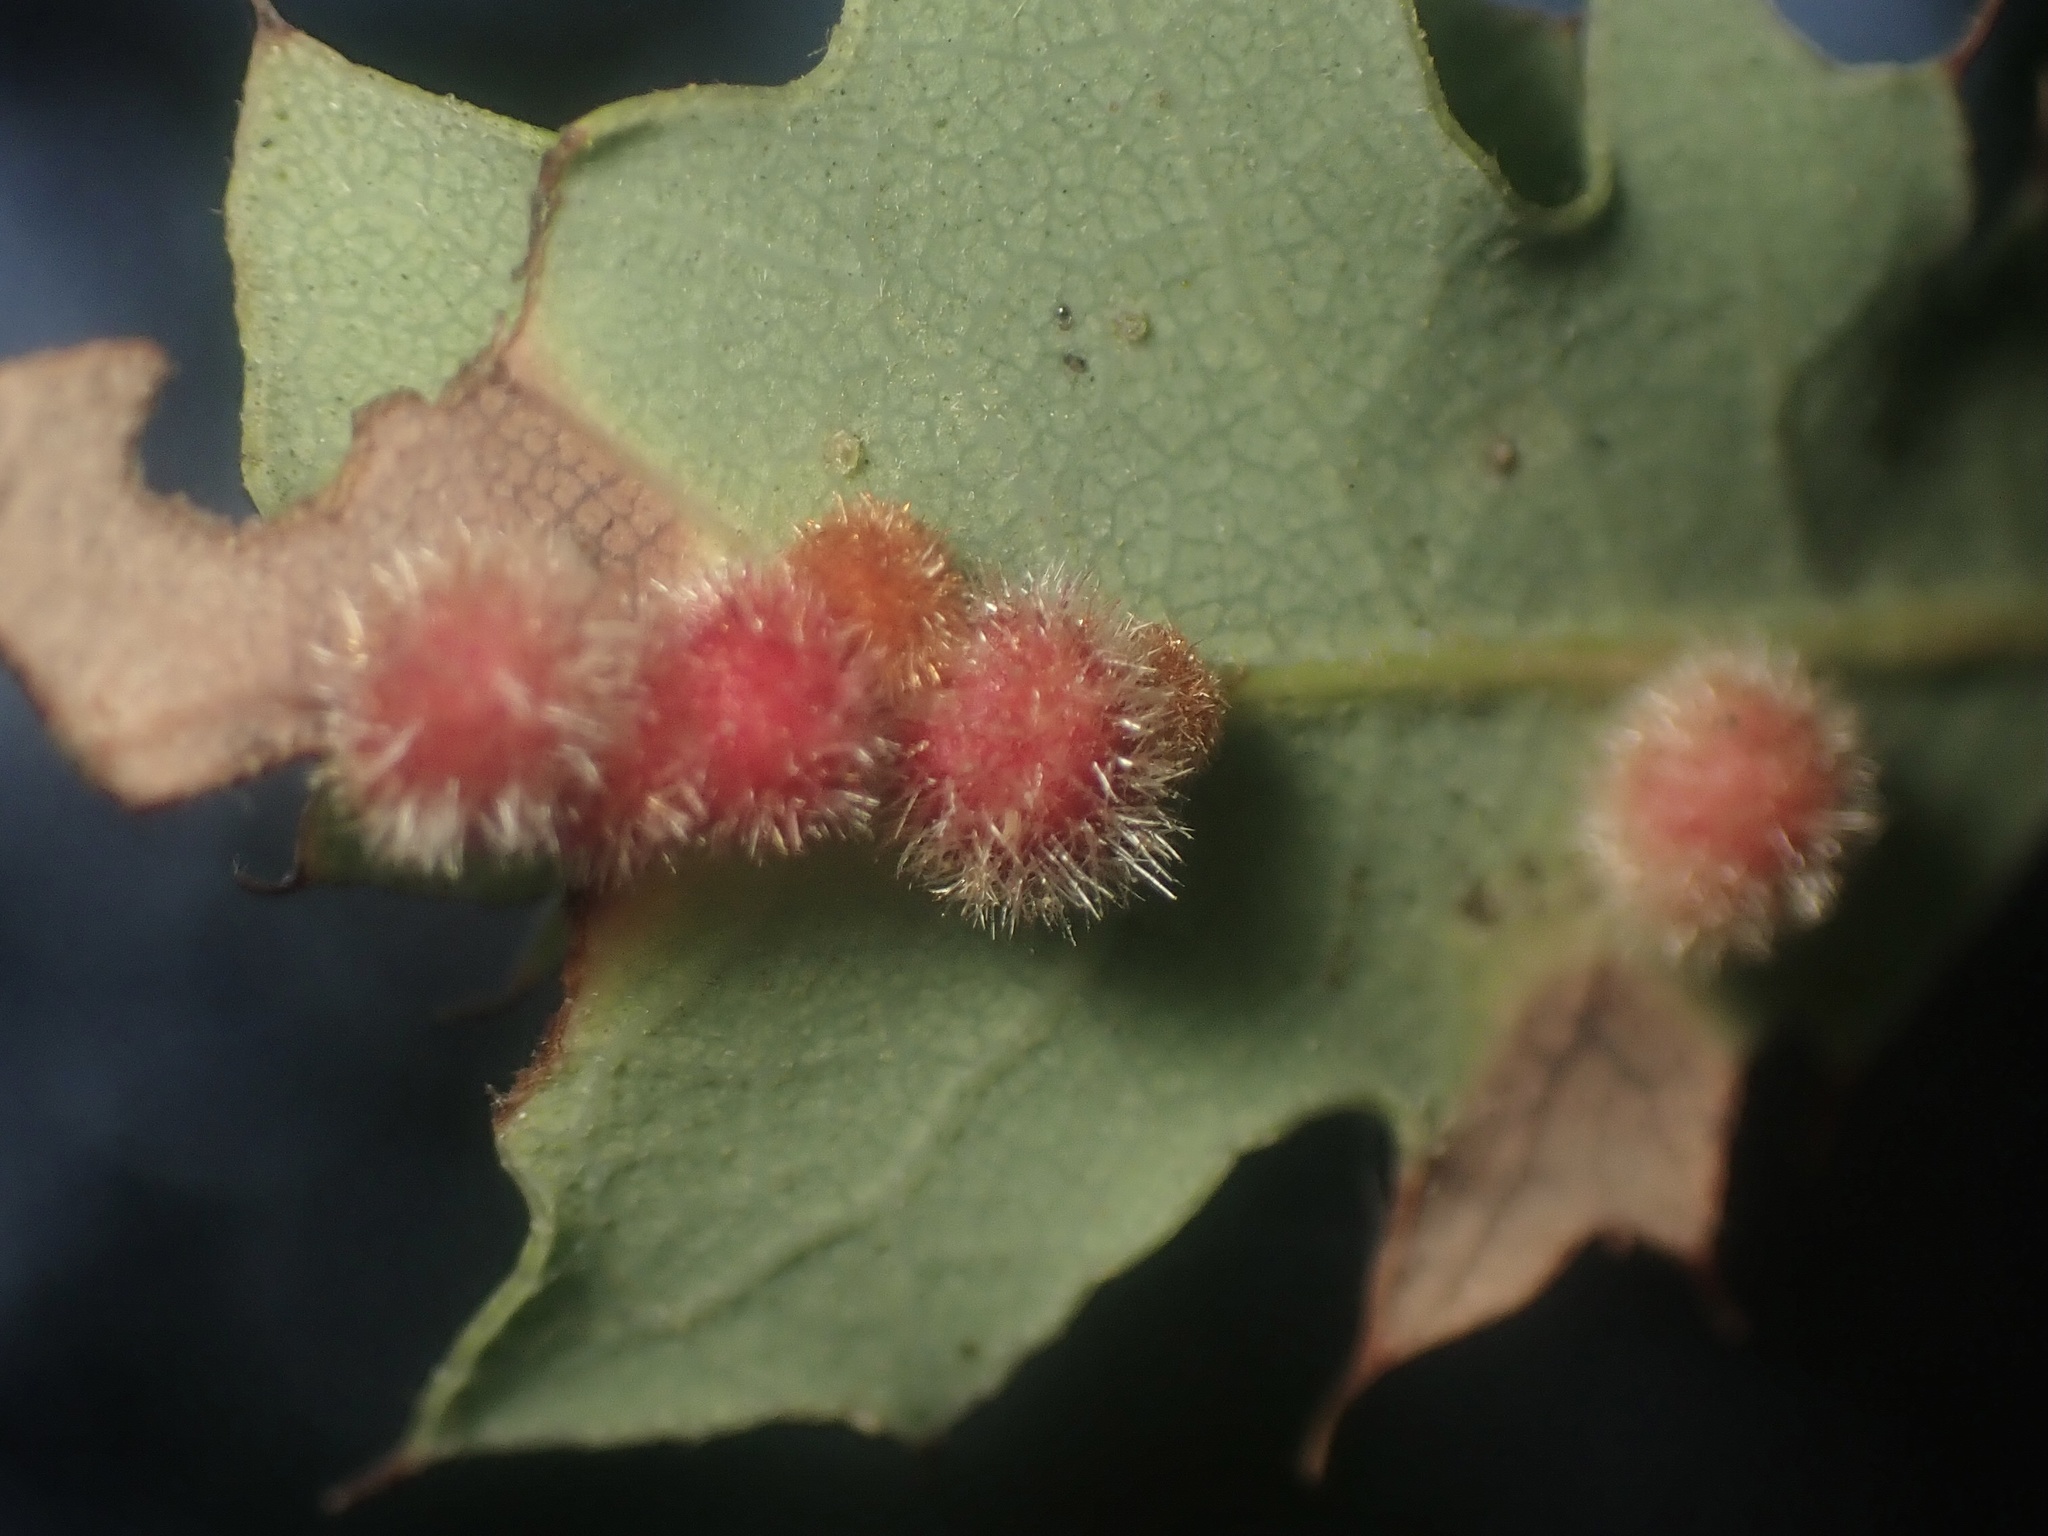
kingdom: Animalia
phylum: Arthropoda
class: Insecta
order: Hymenoptera
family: Cynipidae
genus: Atrusca
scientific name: Atrusca
